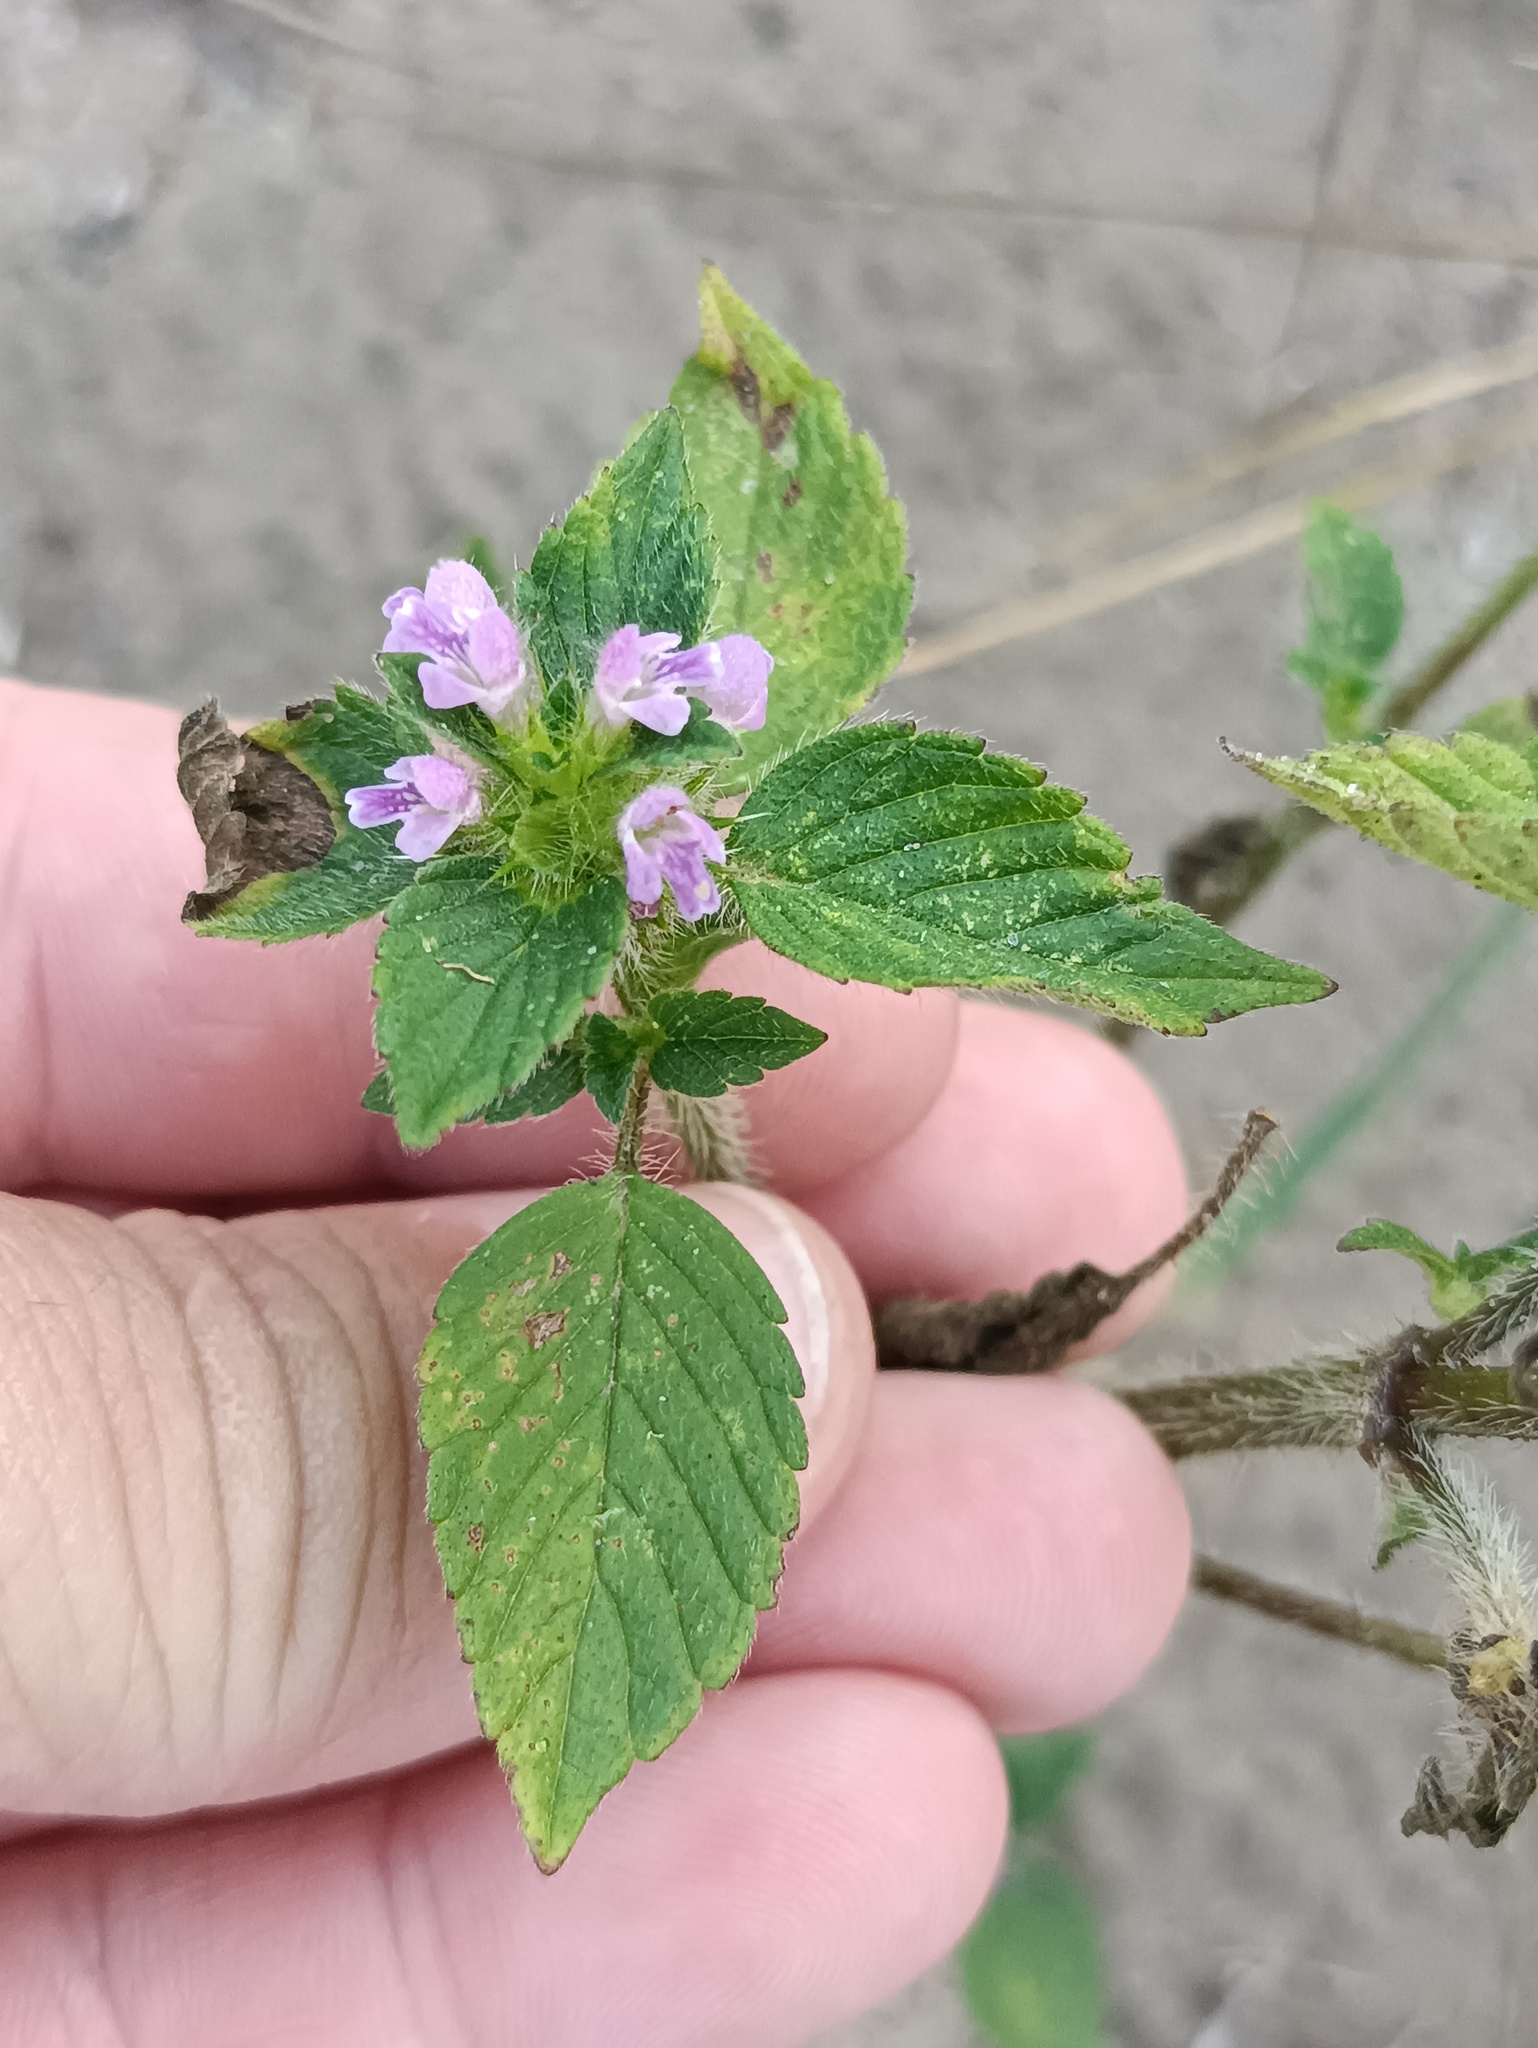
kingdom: Plantae
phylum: Tracheophyta
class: Magnoliopsida
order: Lamiales
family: Lamiaceae
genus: Galeopsis
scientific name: Galeopsis bifida
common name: Bifid hemp-nettle
